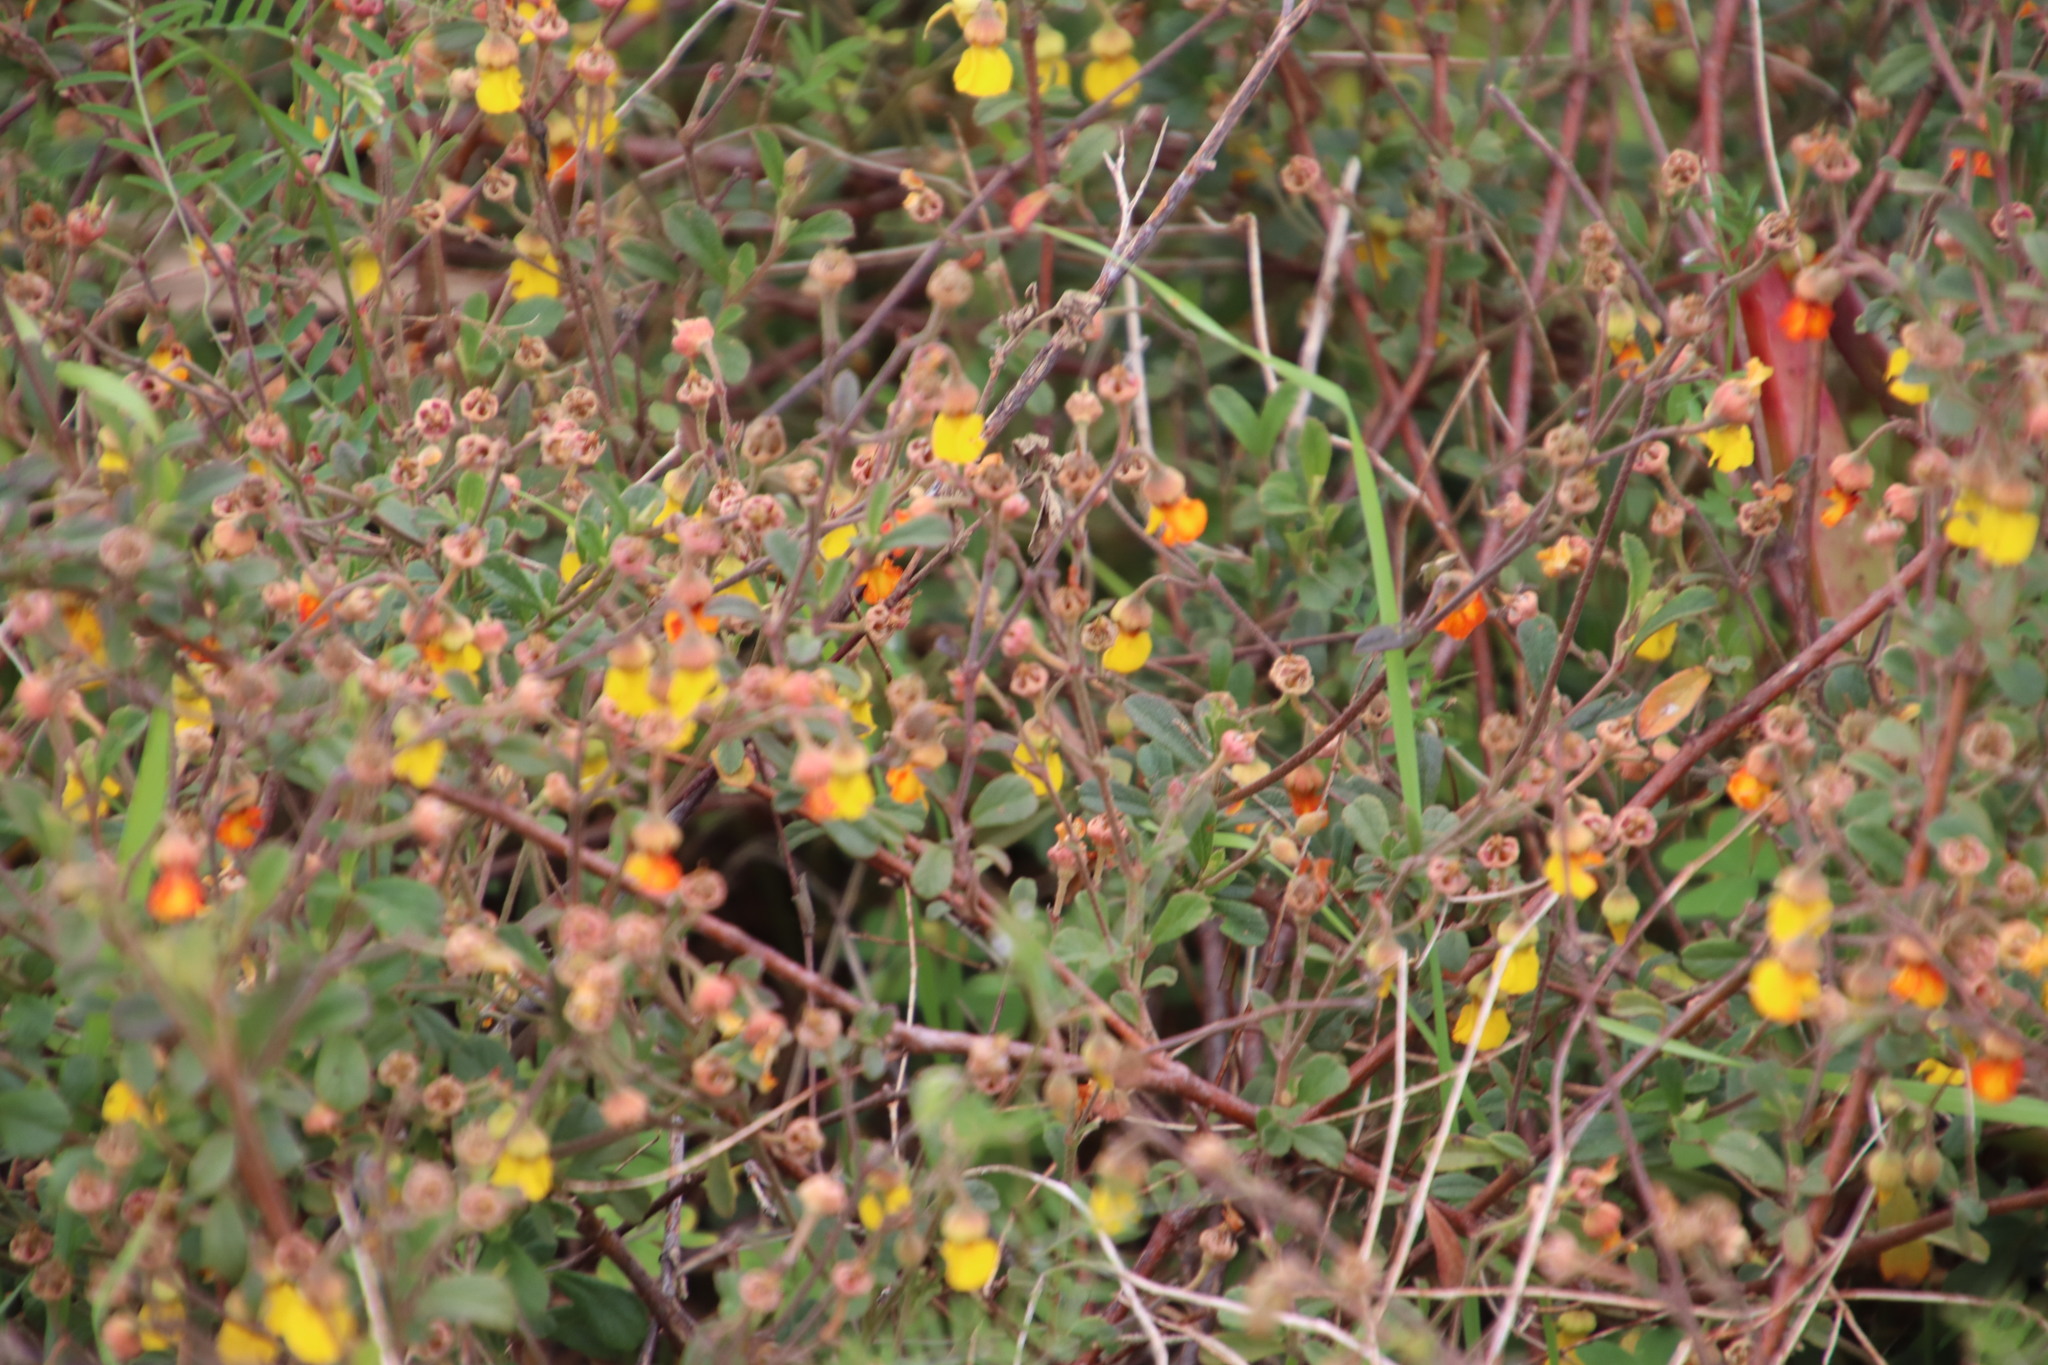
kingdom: Plantae
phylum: Tracheophyta
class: Magnoliopsida
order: Malvales
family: Malvaceae
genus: Hermannia
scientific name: Hermannia multiflora
